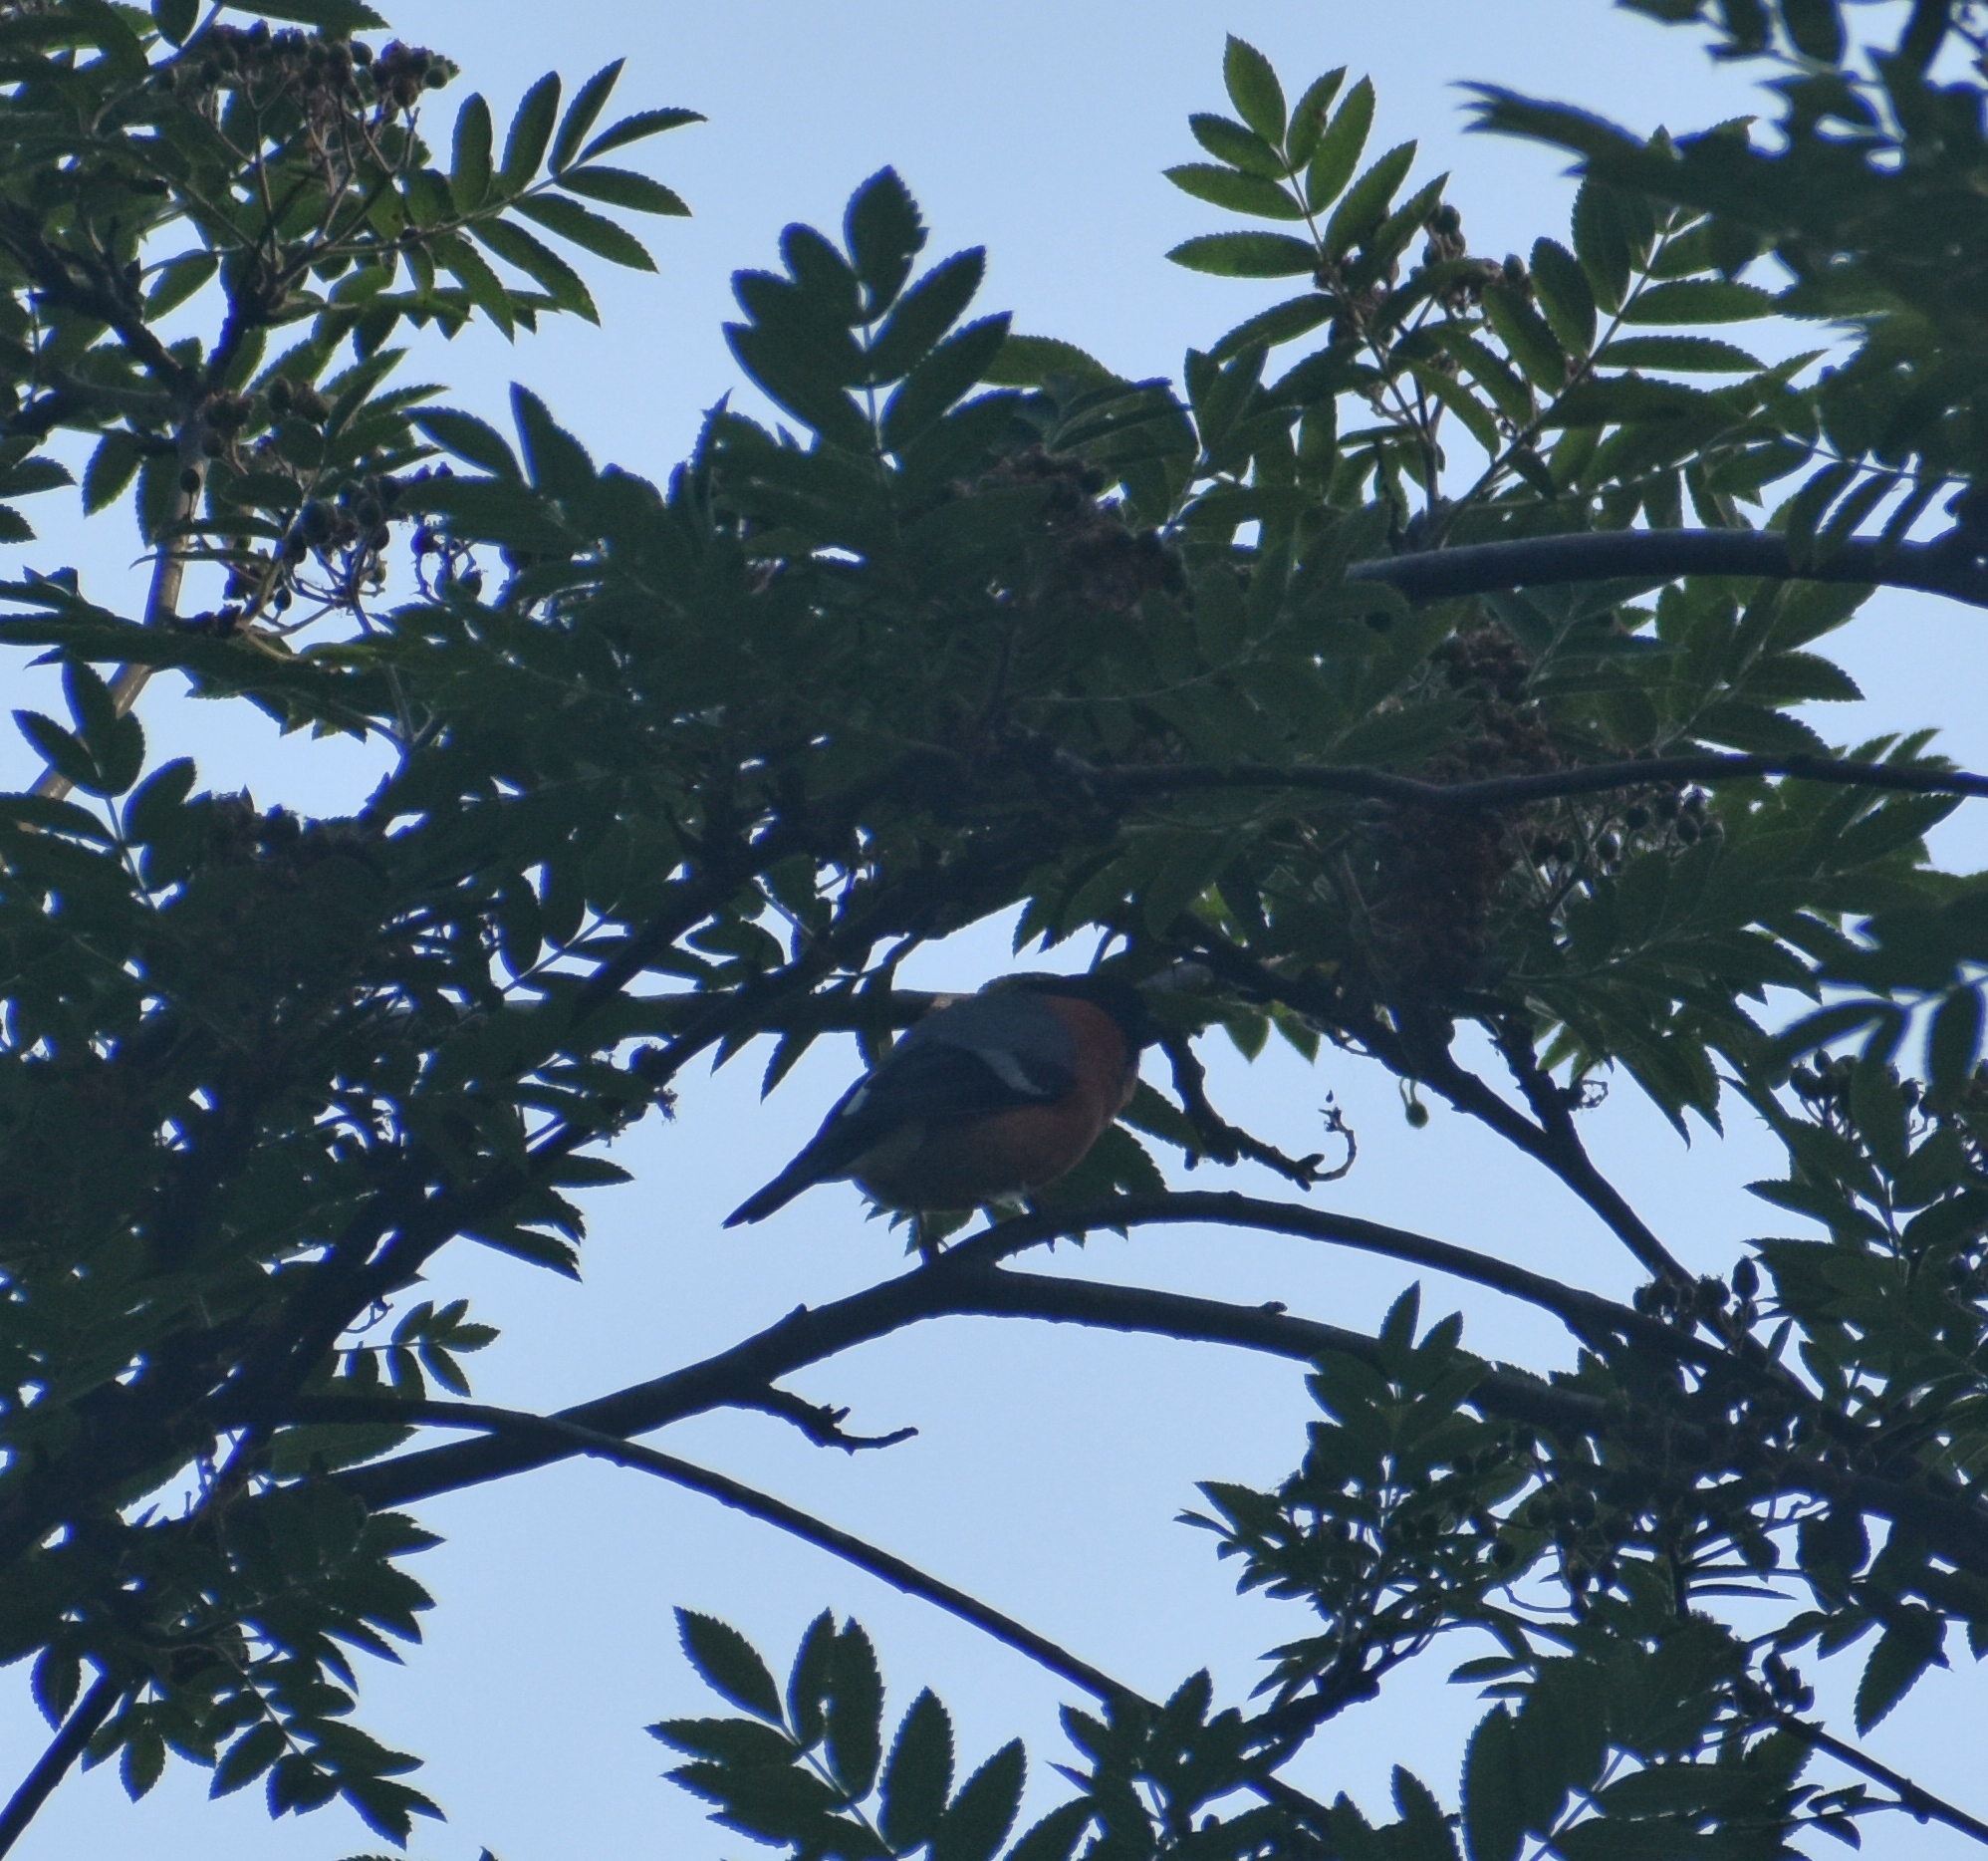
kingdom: Animalia
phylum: Chordata
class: Aves
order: Passeriformes
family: Fringillidae
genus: Pyrrhula
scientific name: Pyrrhula pyrrhula
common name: Eurasian bullfinch
